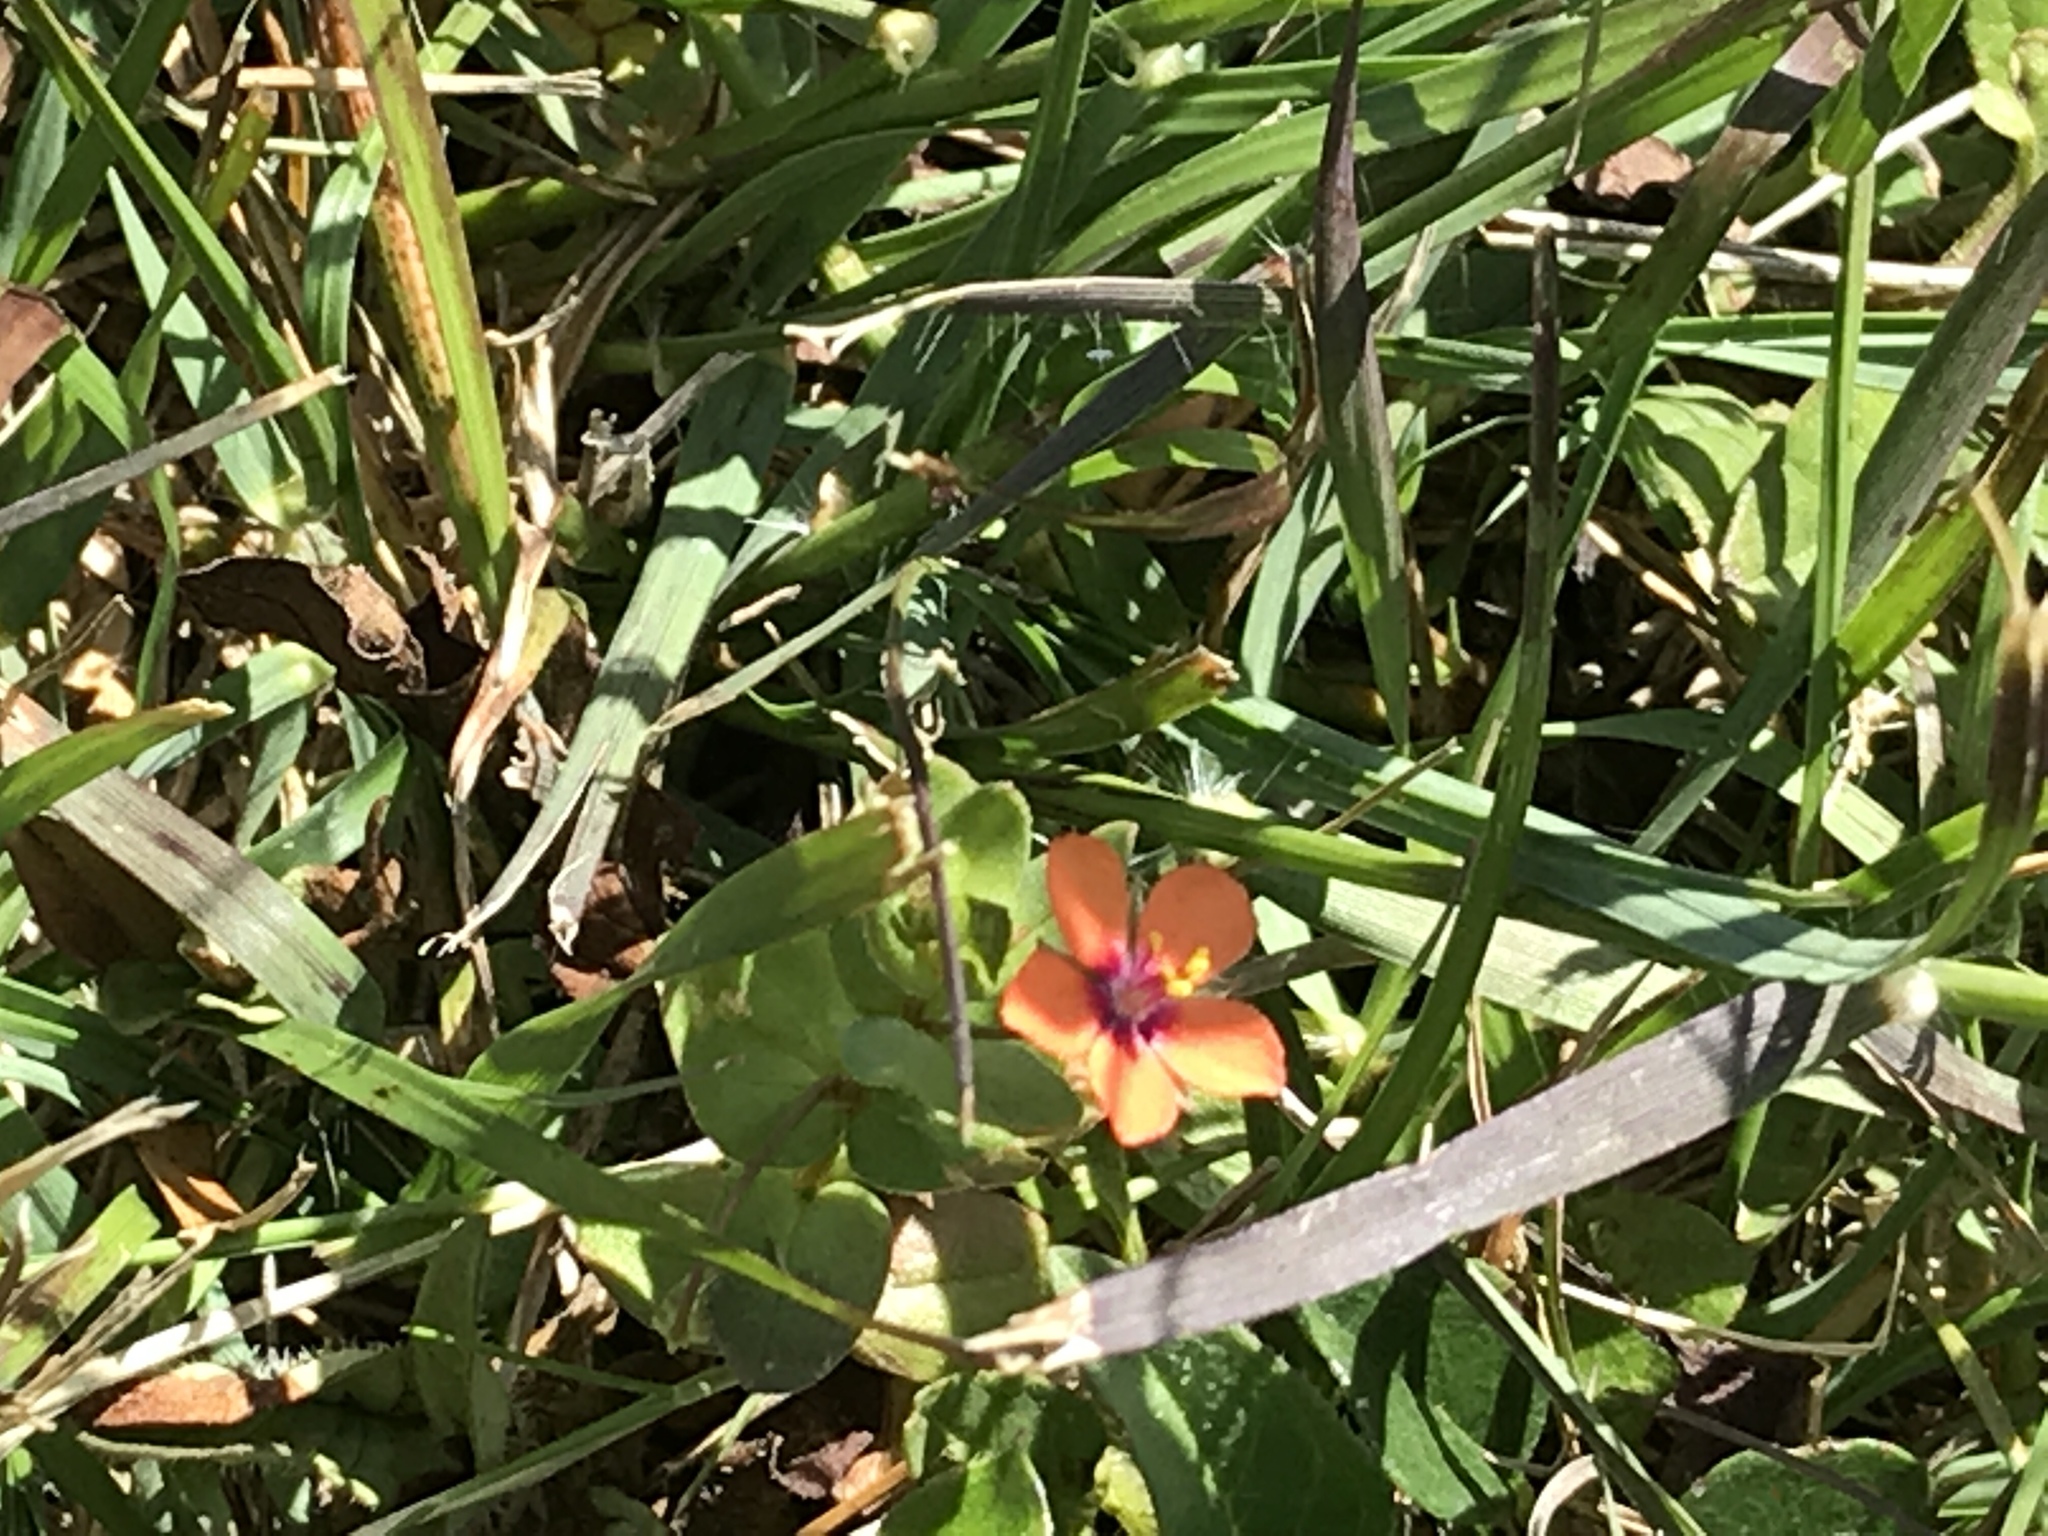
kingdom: Plantae
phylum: Tracheophyta
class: Magnoliopsida
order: Ericales
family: Primulaceae
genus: Lysimachia
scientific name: Lysimachia arvensis
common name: Scarlet pimpernel
